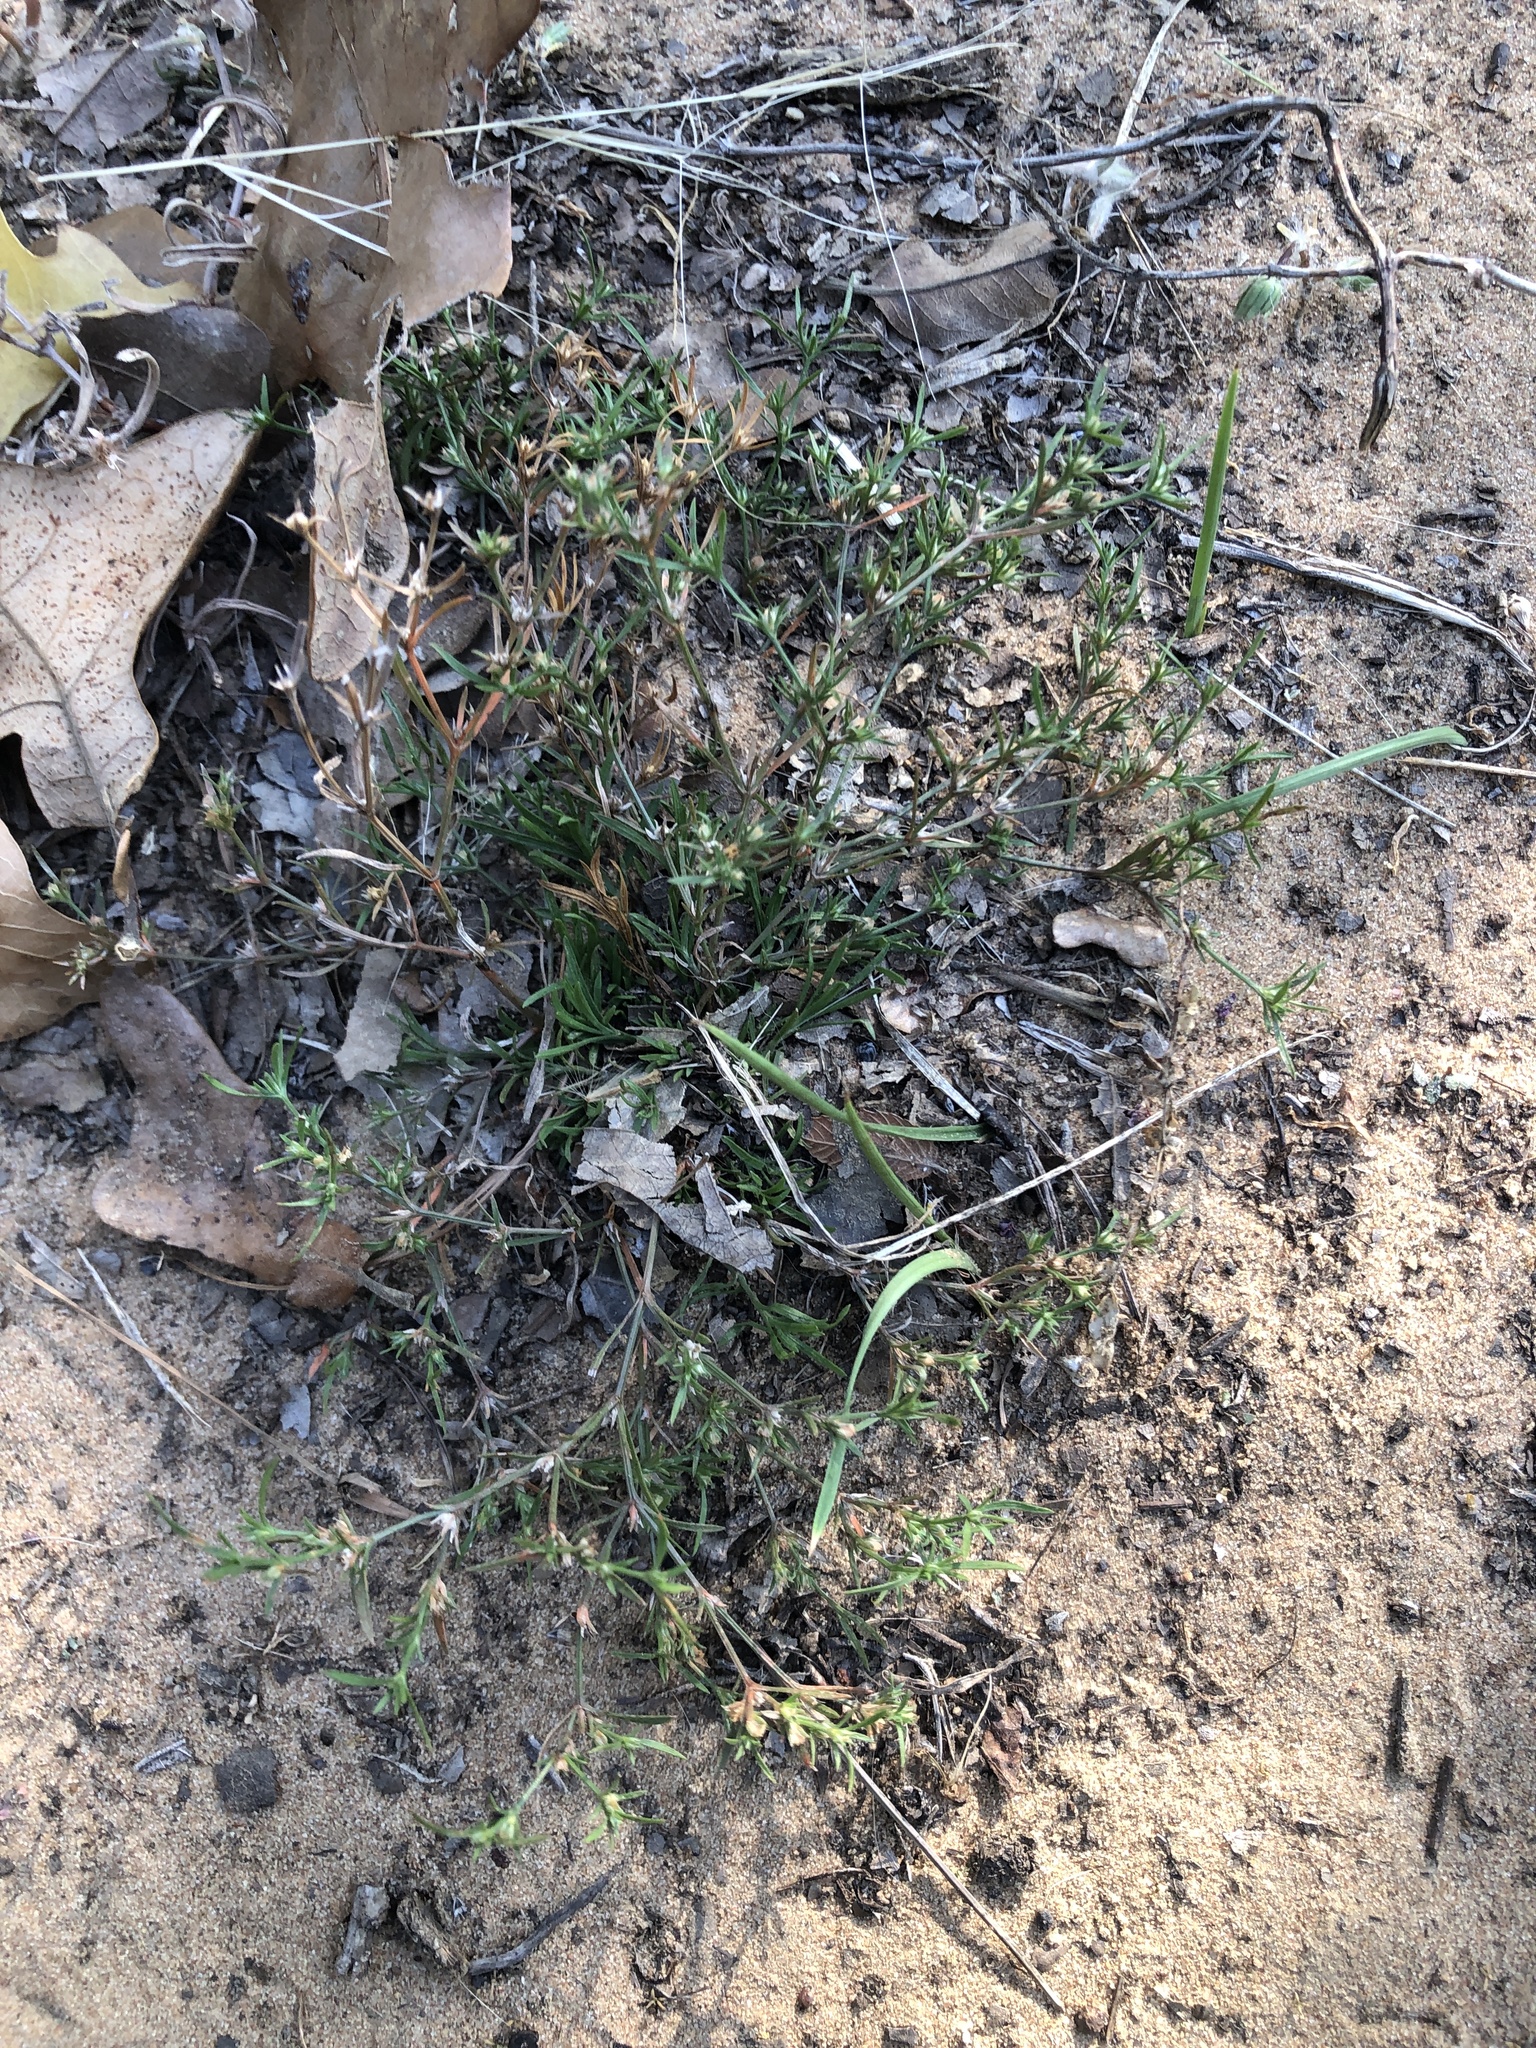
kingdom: Plantae
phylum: Tracheophyta
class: Magnoliopsida
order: Lamiales
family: Tetrachondraceae
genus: Polypremum
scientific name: Polypremum procumbens
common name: Juniper-leaf
